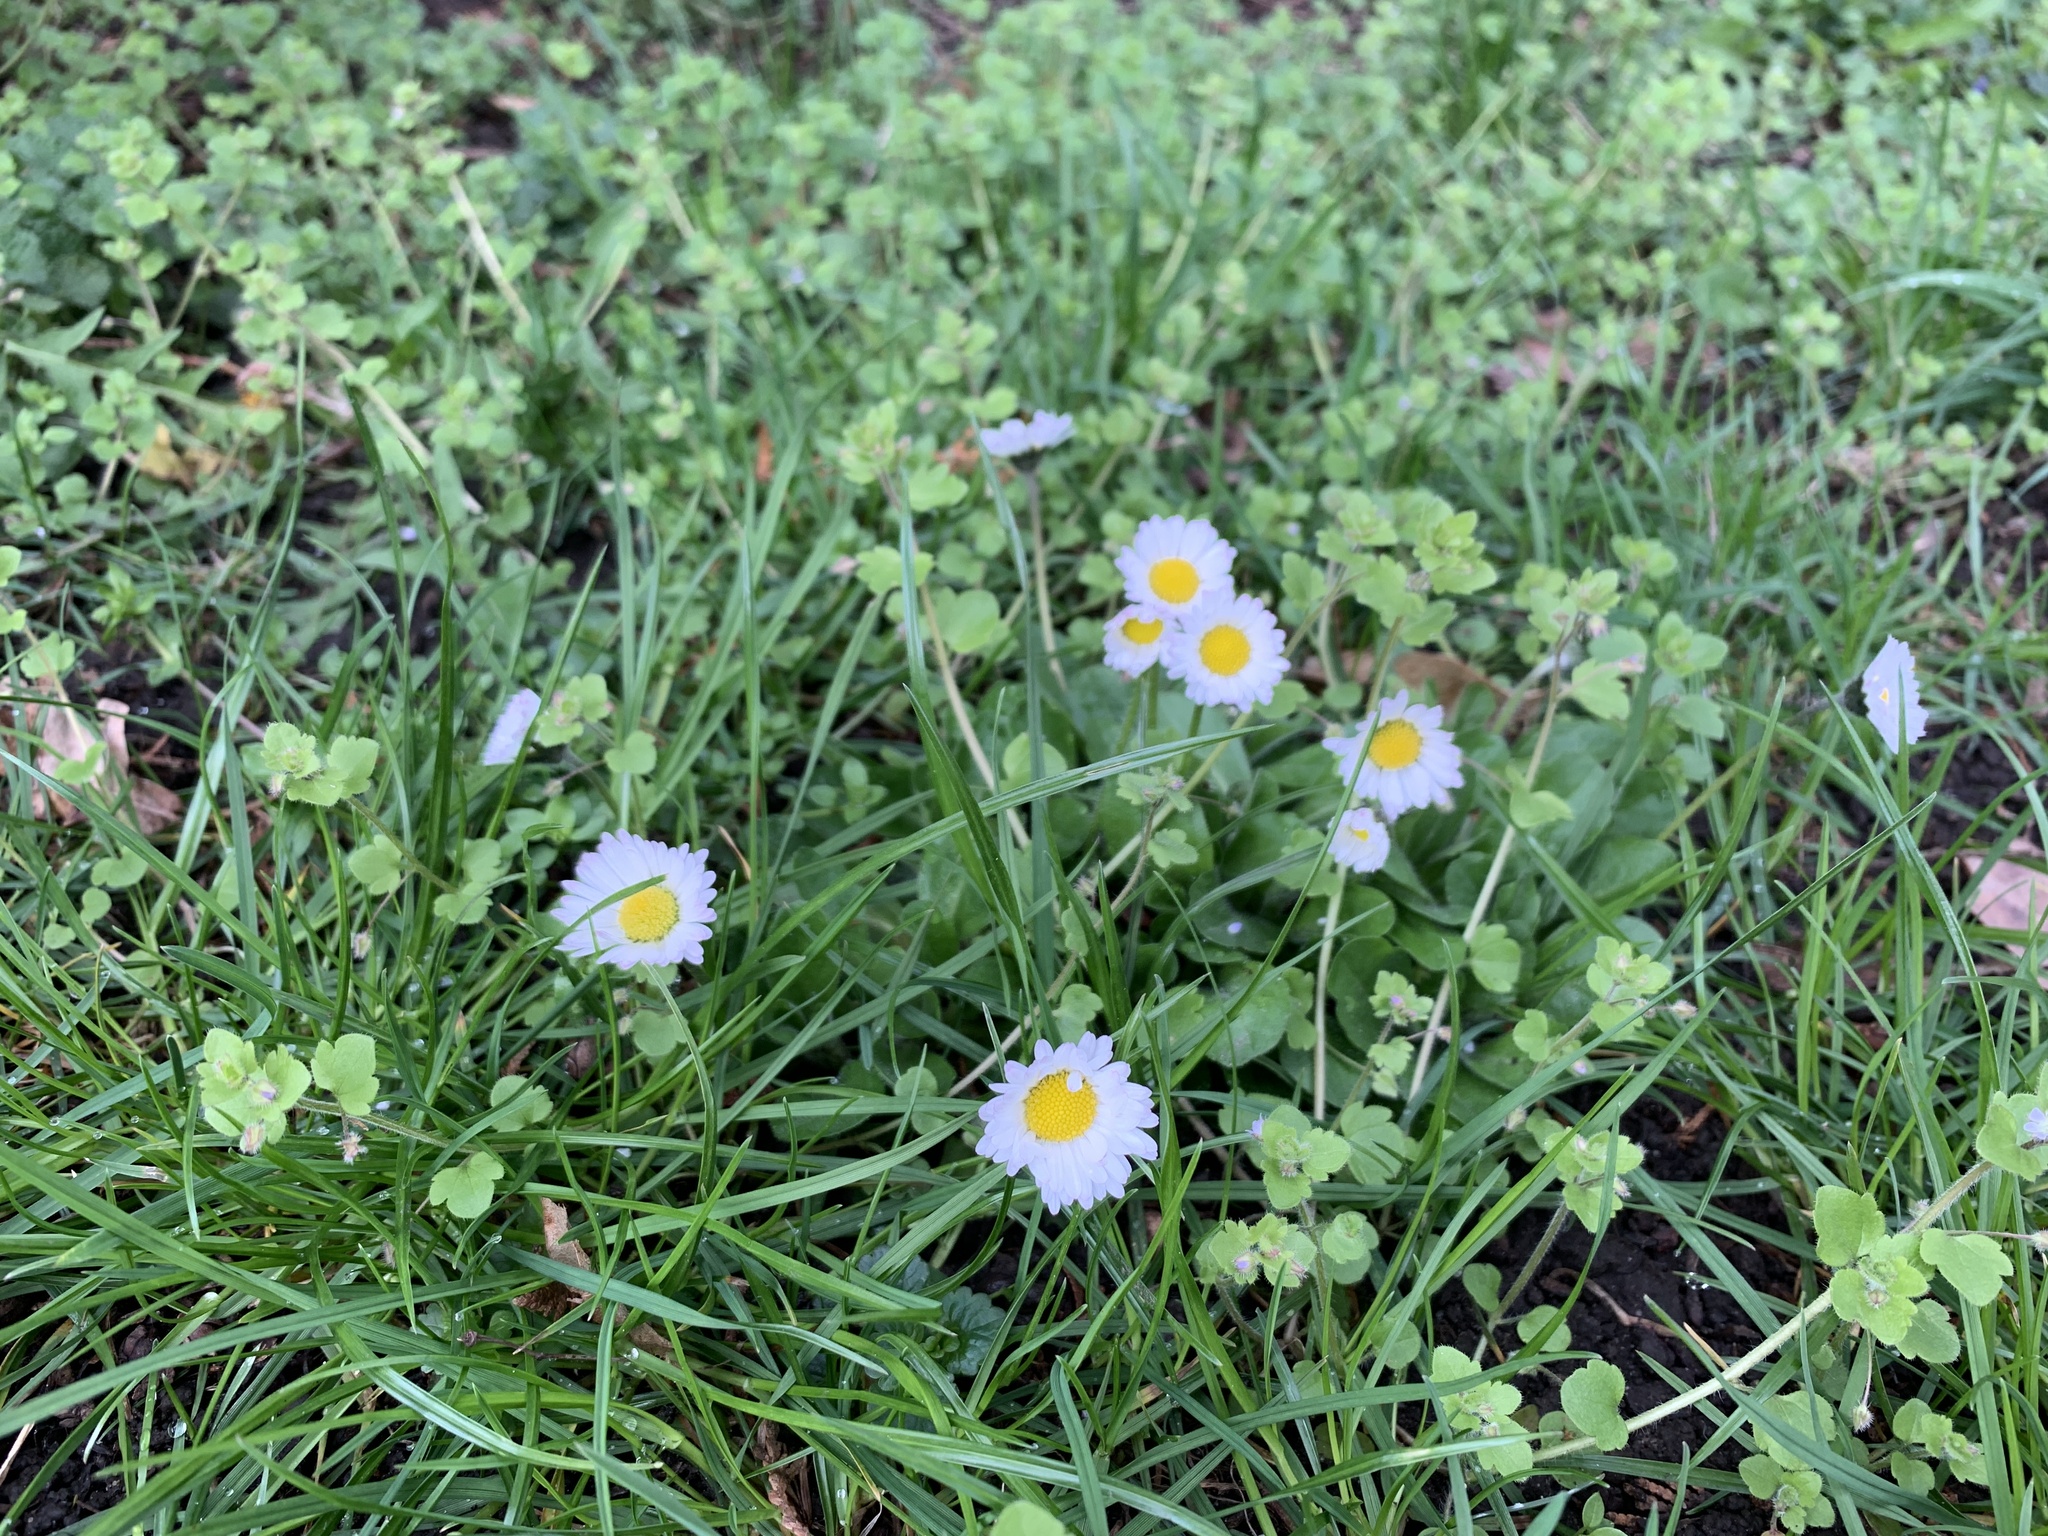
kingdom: Plantae
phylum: Tracheophyta
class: Magnoliopsida
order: Asterales
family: Asteraceae
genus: Bellis
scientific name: Bellis perennis
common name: Lawndaisy
